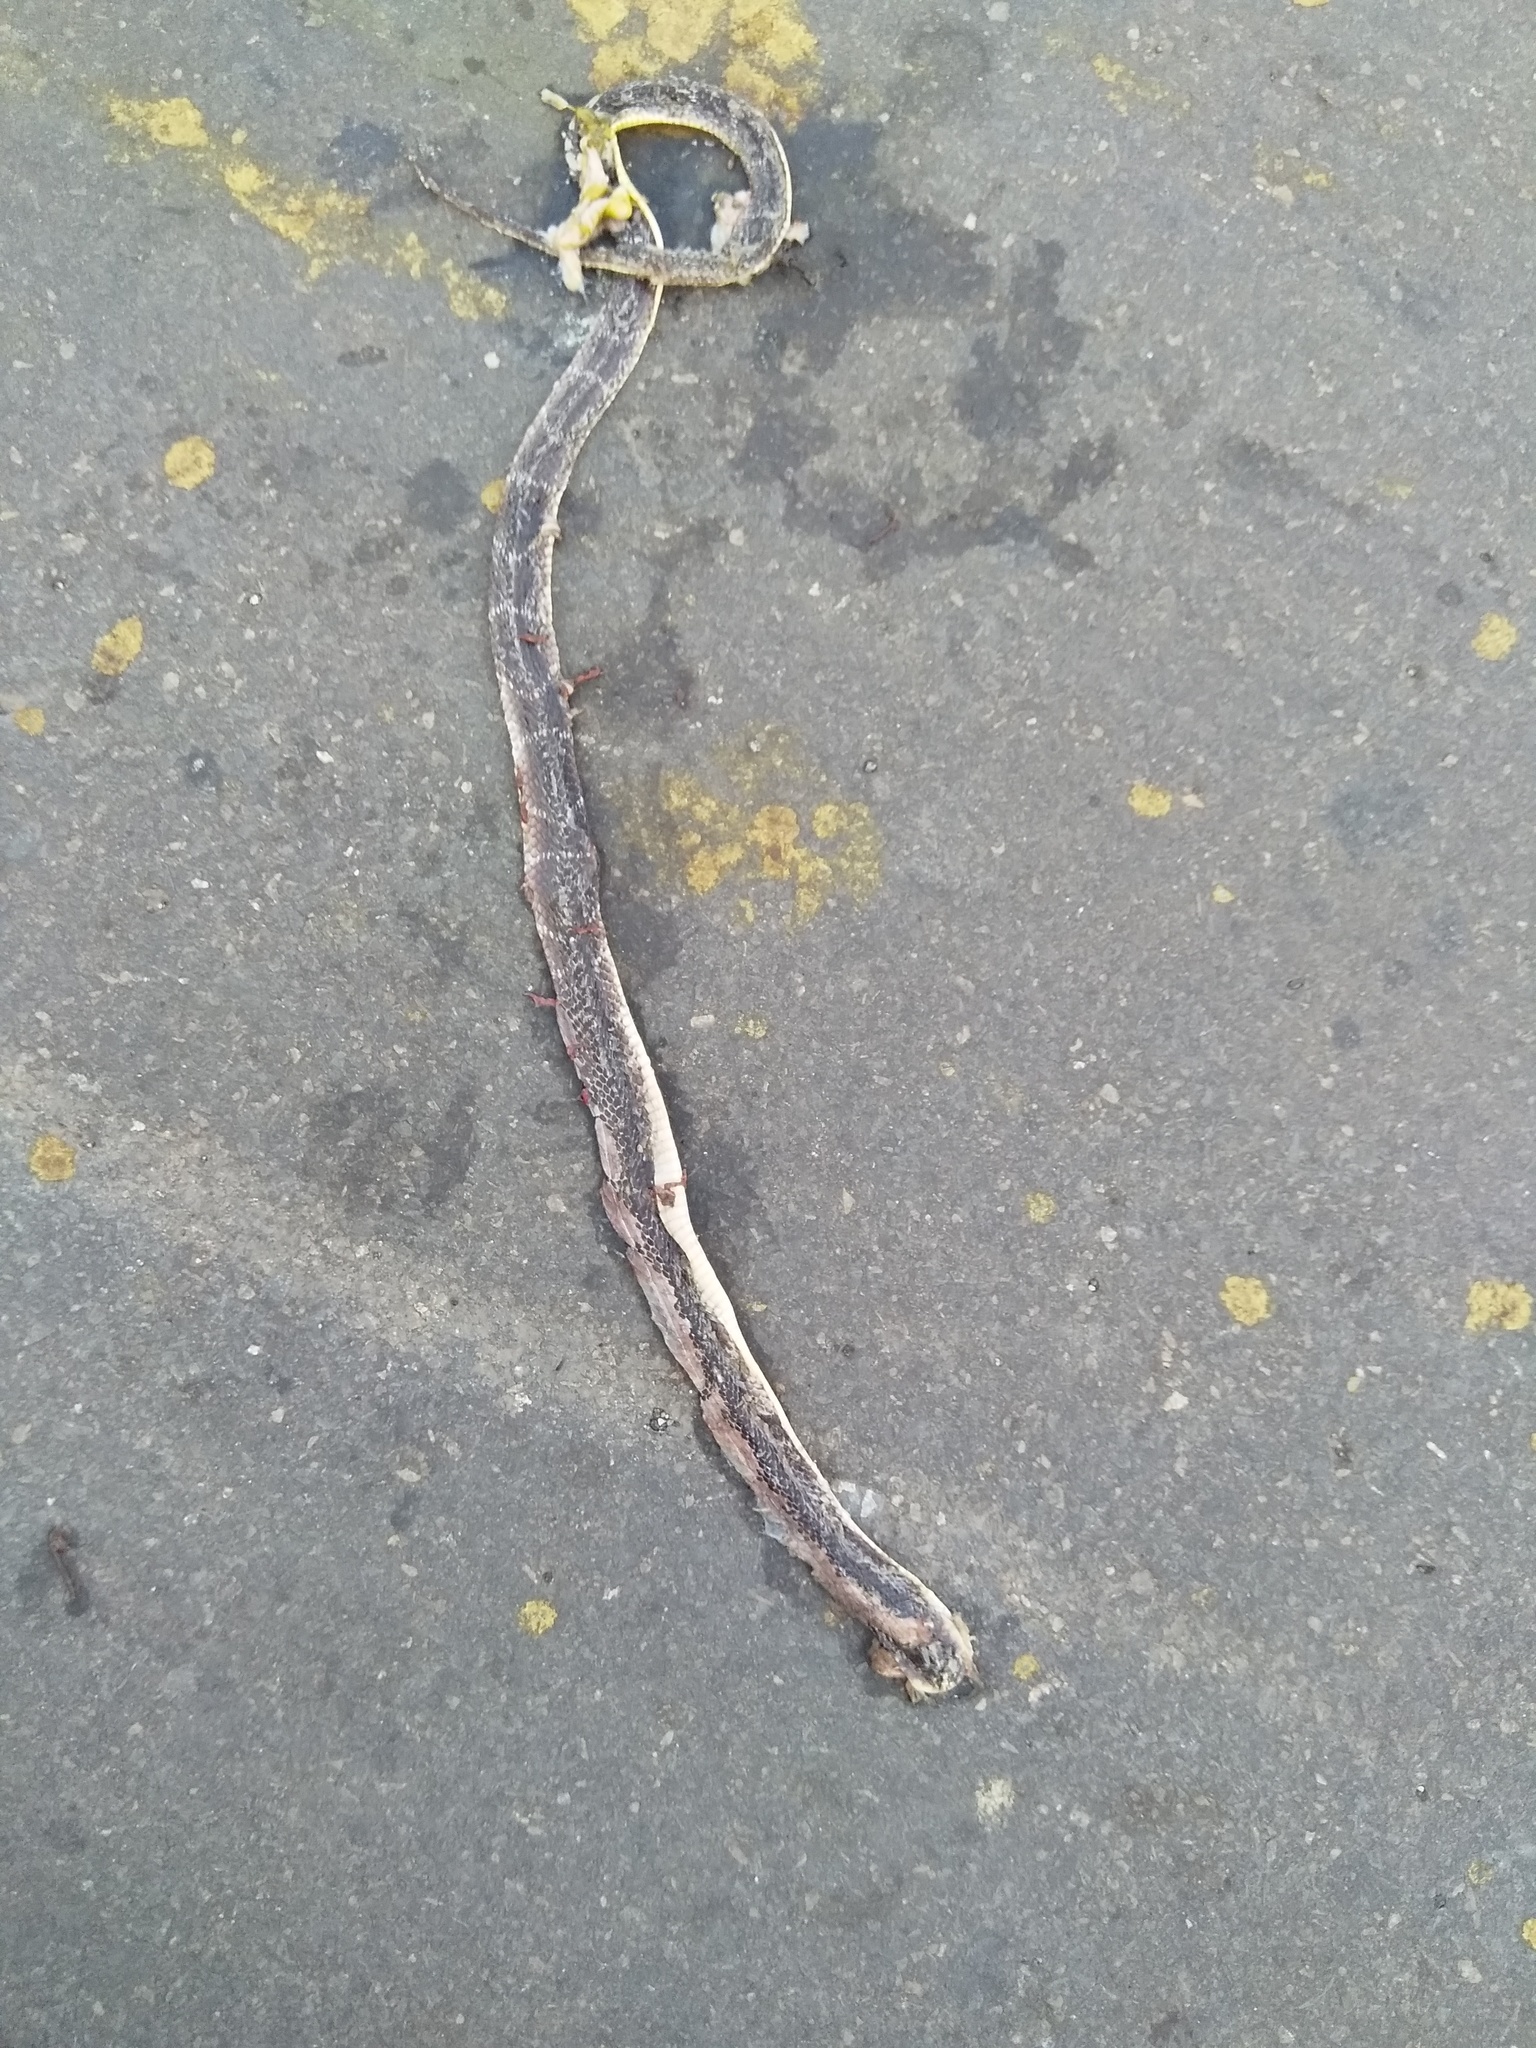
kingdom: Animalia
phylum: Chordata
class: Squamata
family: Elapidae
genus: Bungarus
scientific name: Bungarus caeruleus
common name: Common krait
